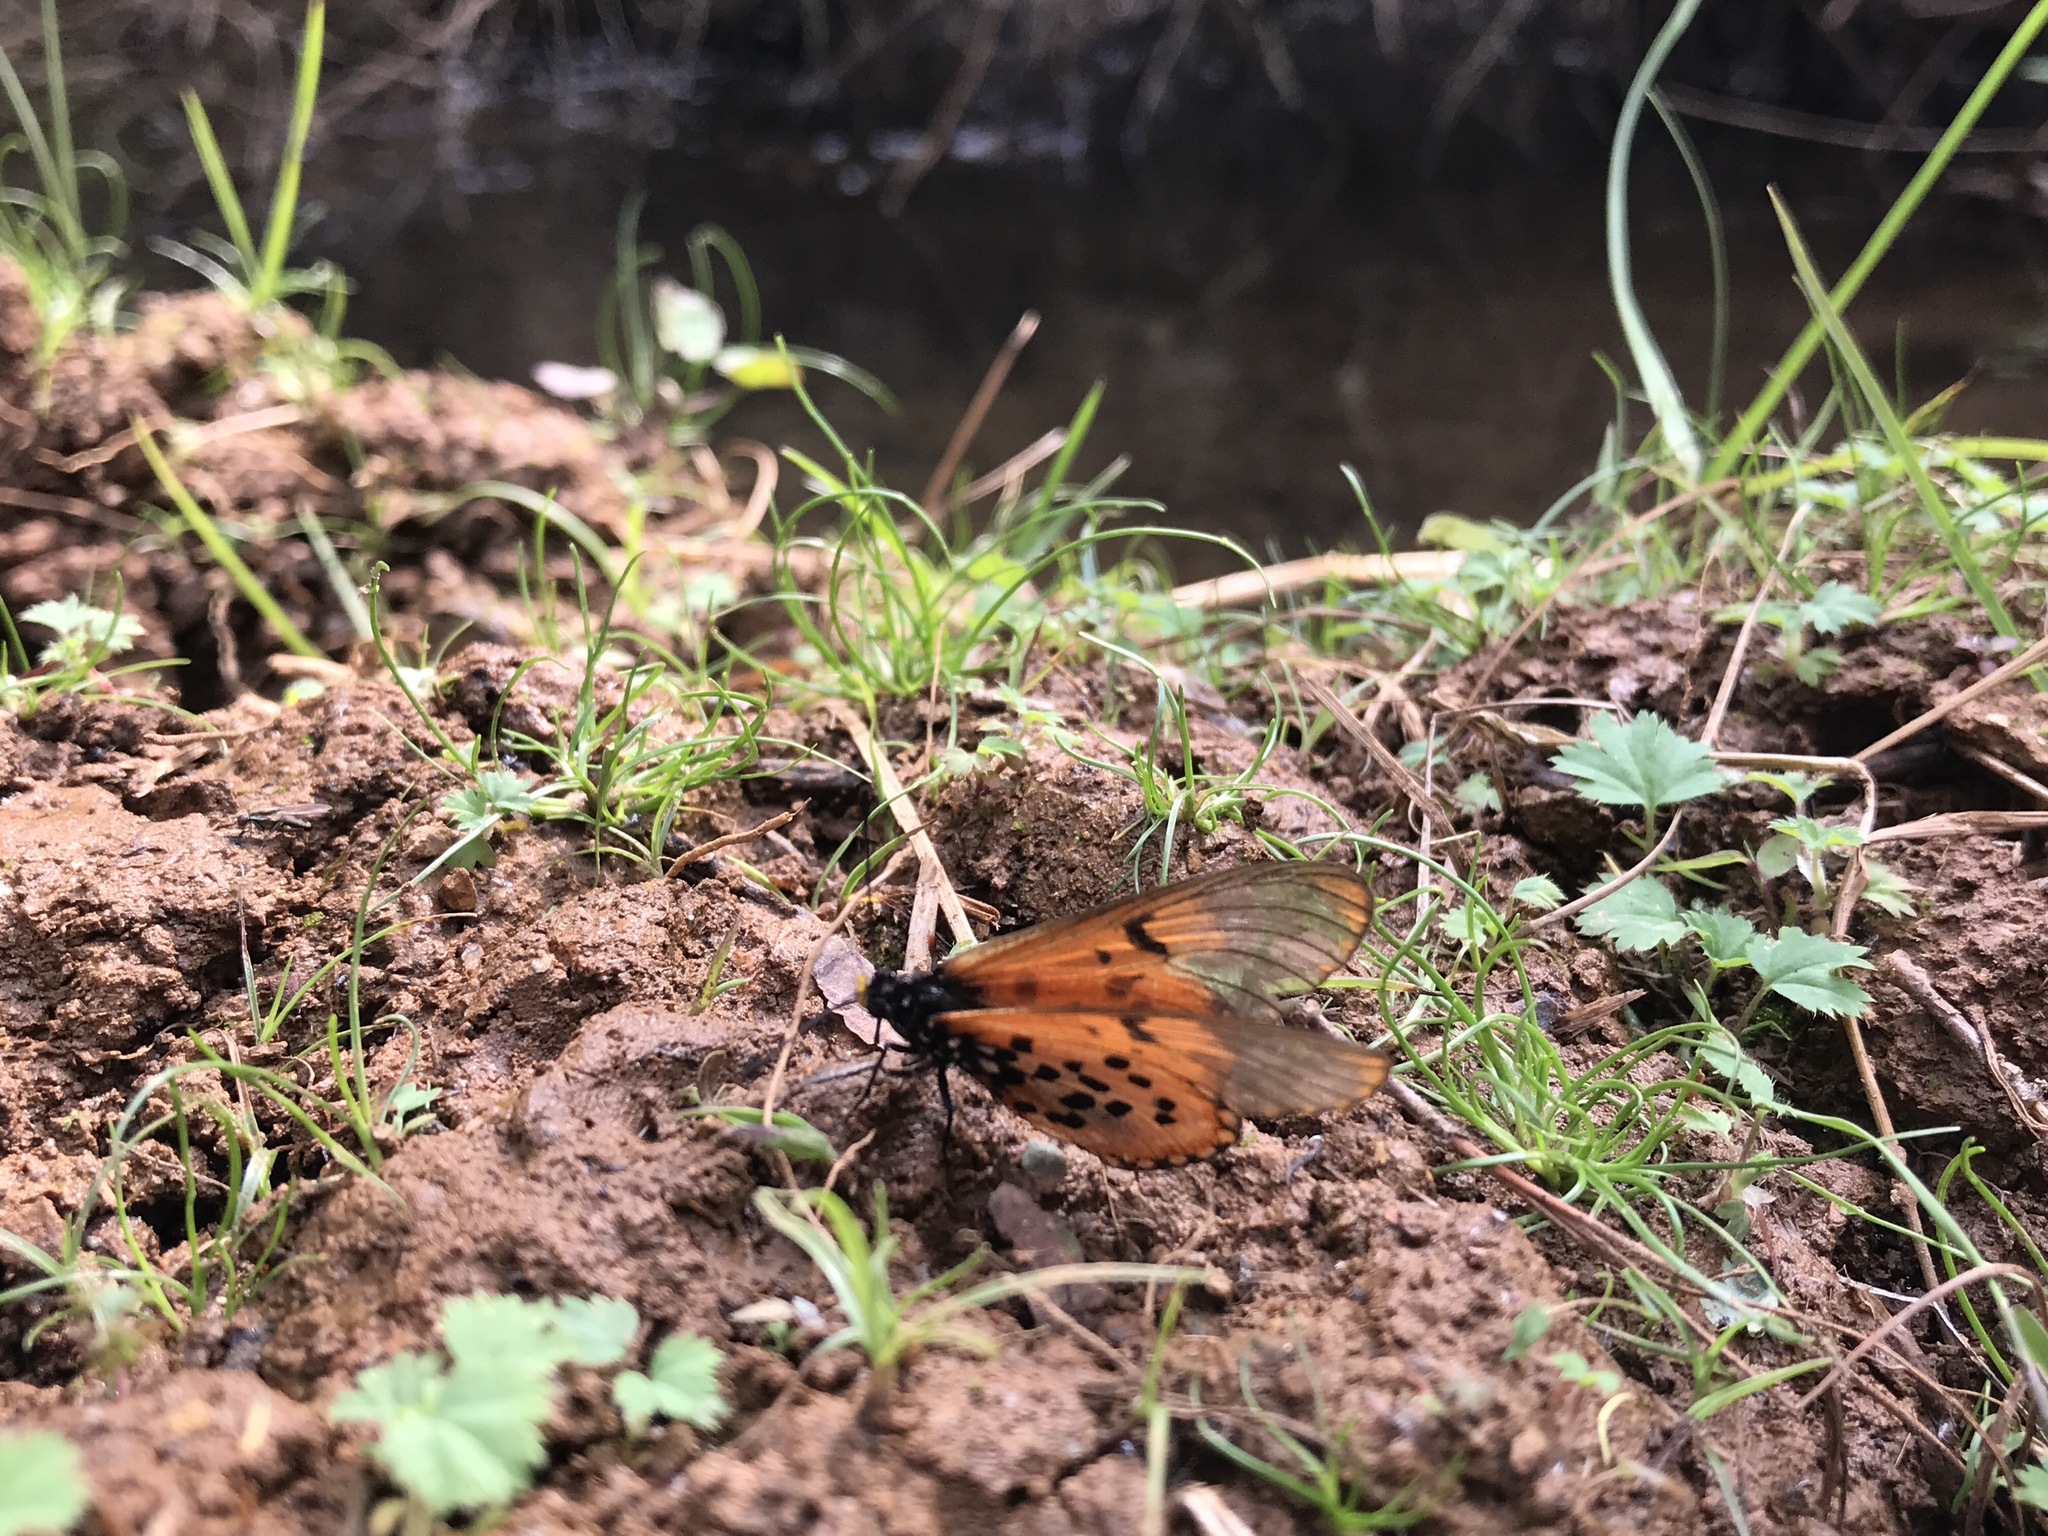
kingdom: Animalia
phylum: Arthropoda
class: Insecta
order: Lepidoptera
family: Nymphalidae
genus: Acraea
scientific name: Acraea horta
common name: Garden acraea
